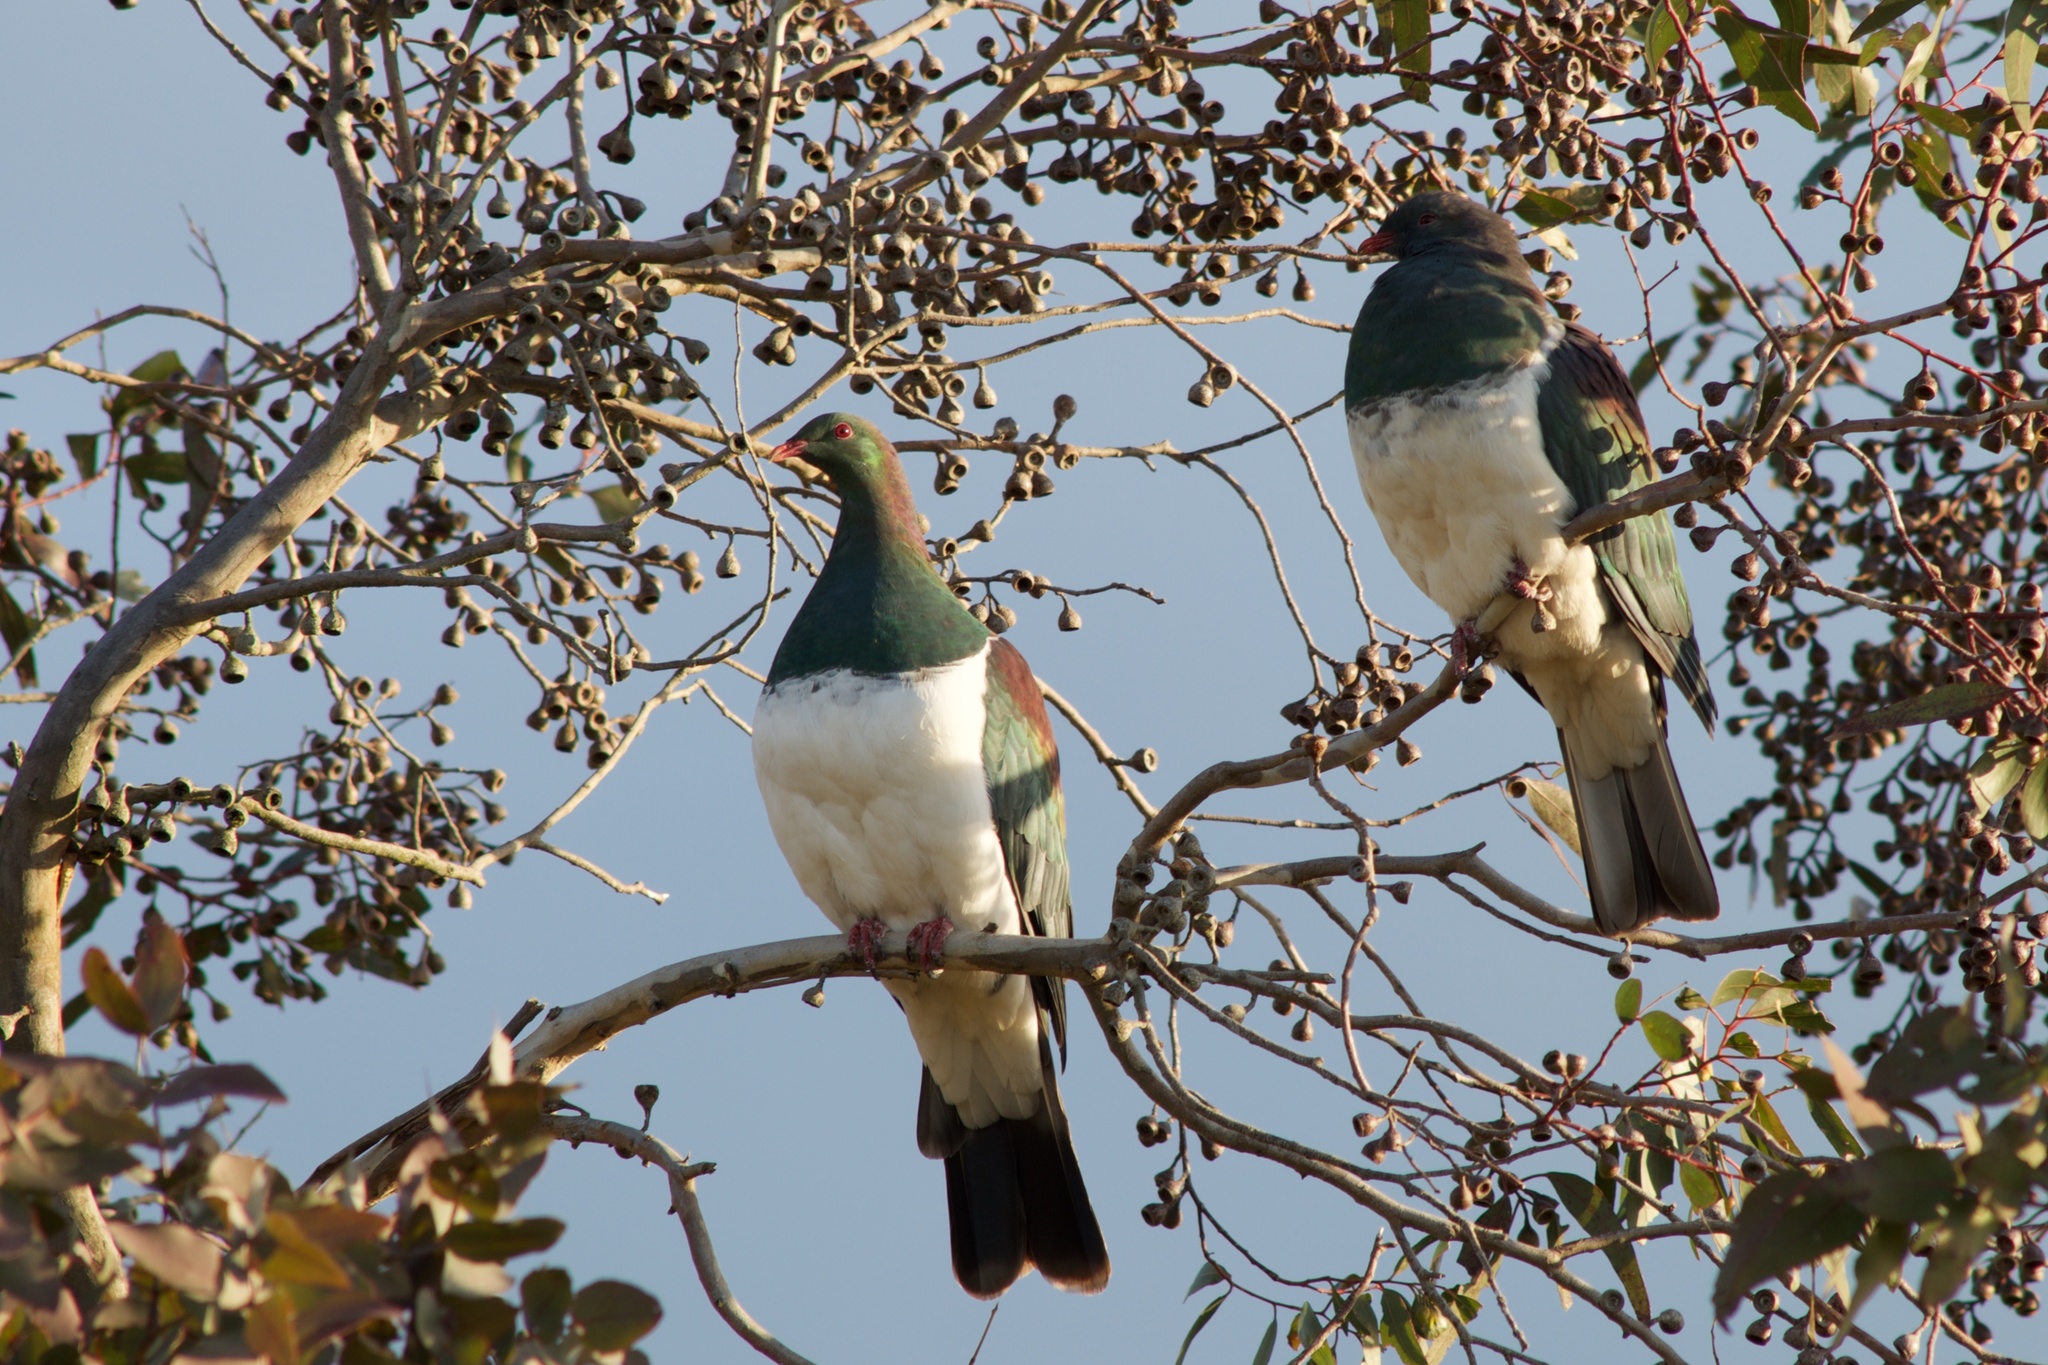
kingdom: Animalia
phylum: Chordata
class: Aves
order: Columbiformes
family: Columbidae
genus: Hemiphaga
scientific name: Hemiphaga novaeseelandiae
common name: New zealand pigeon
